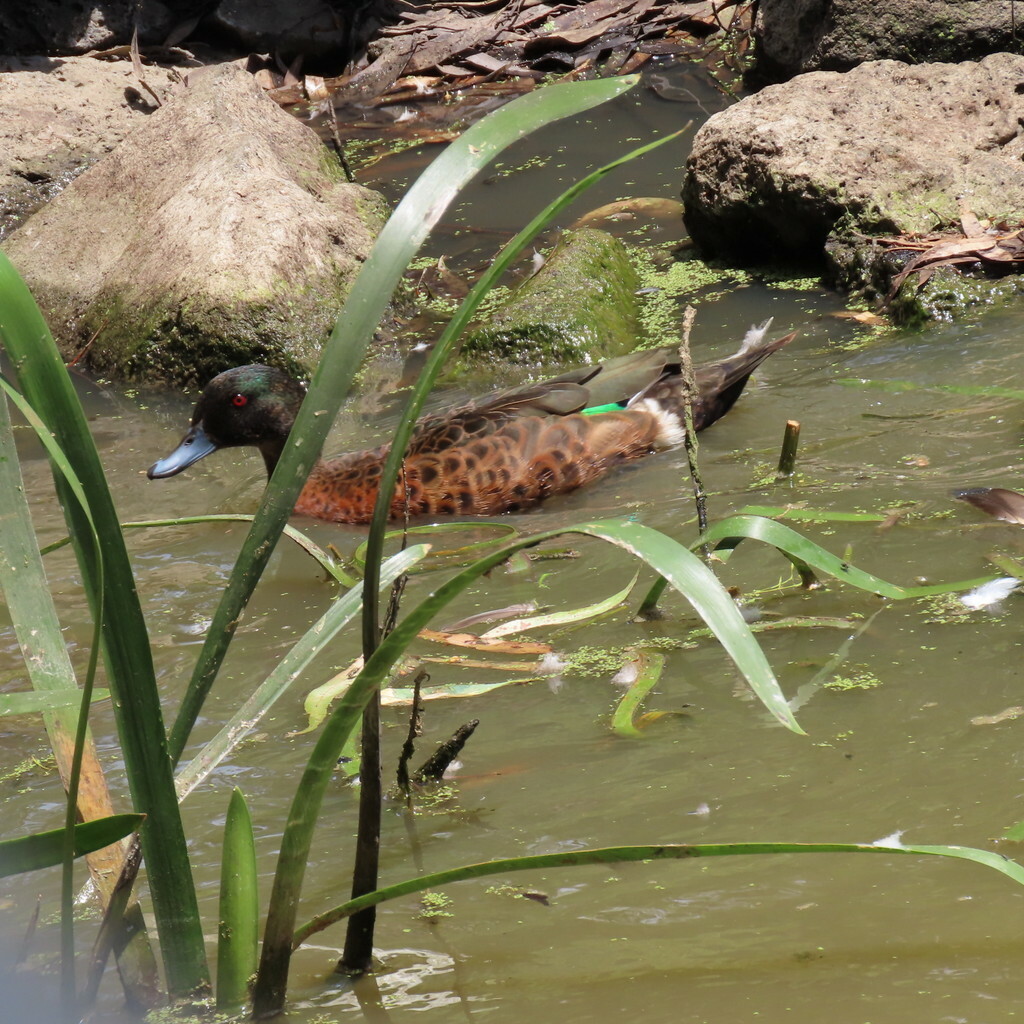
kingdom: Animalia
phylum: Chordata
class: Aves
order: Anseriformes
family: Anatidae
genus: Anas
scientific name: Anas castanea
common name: Chestnut teal
